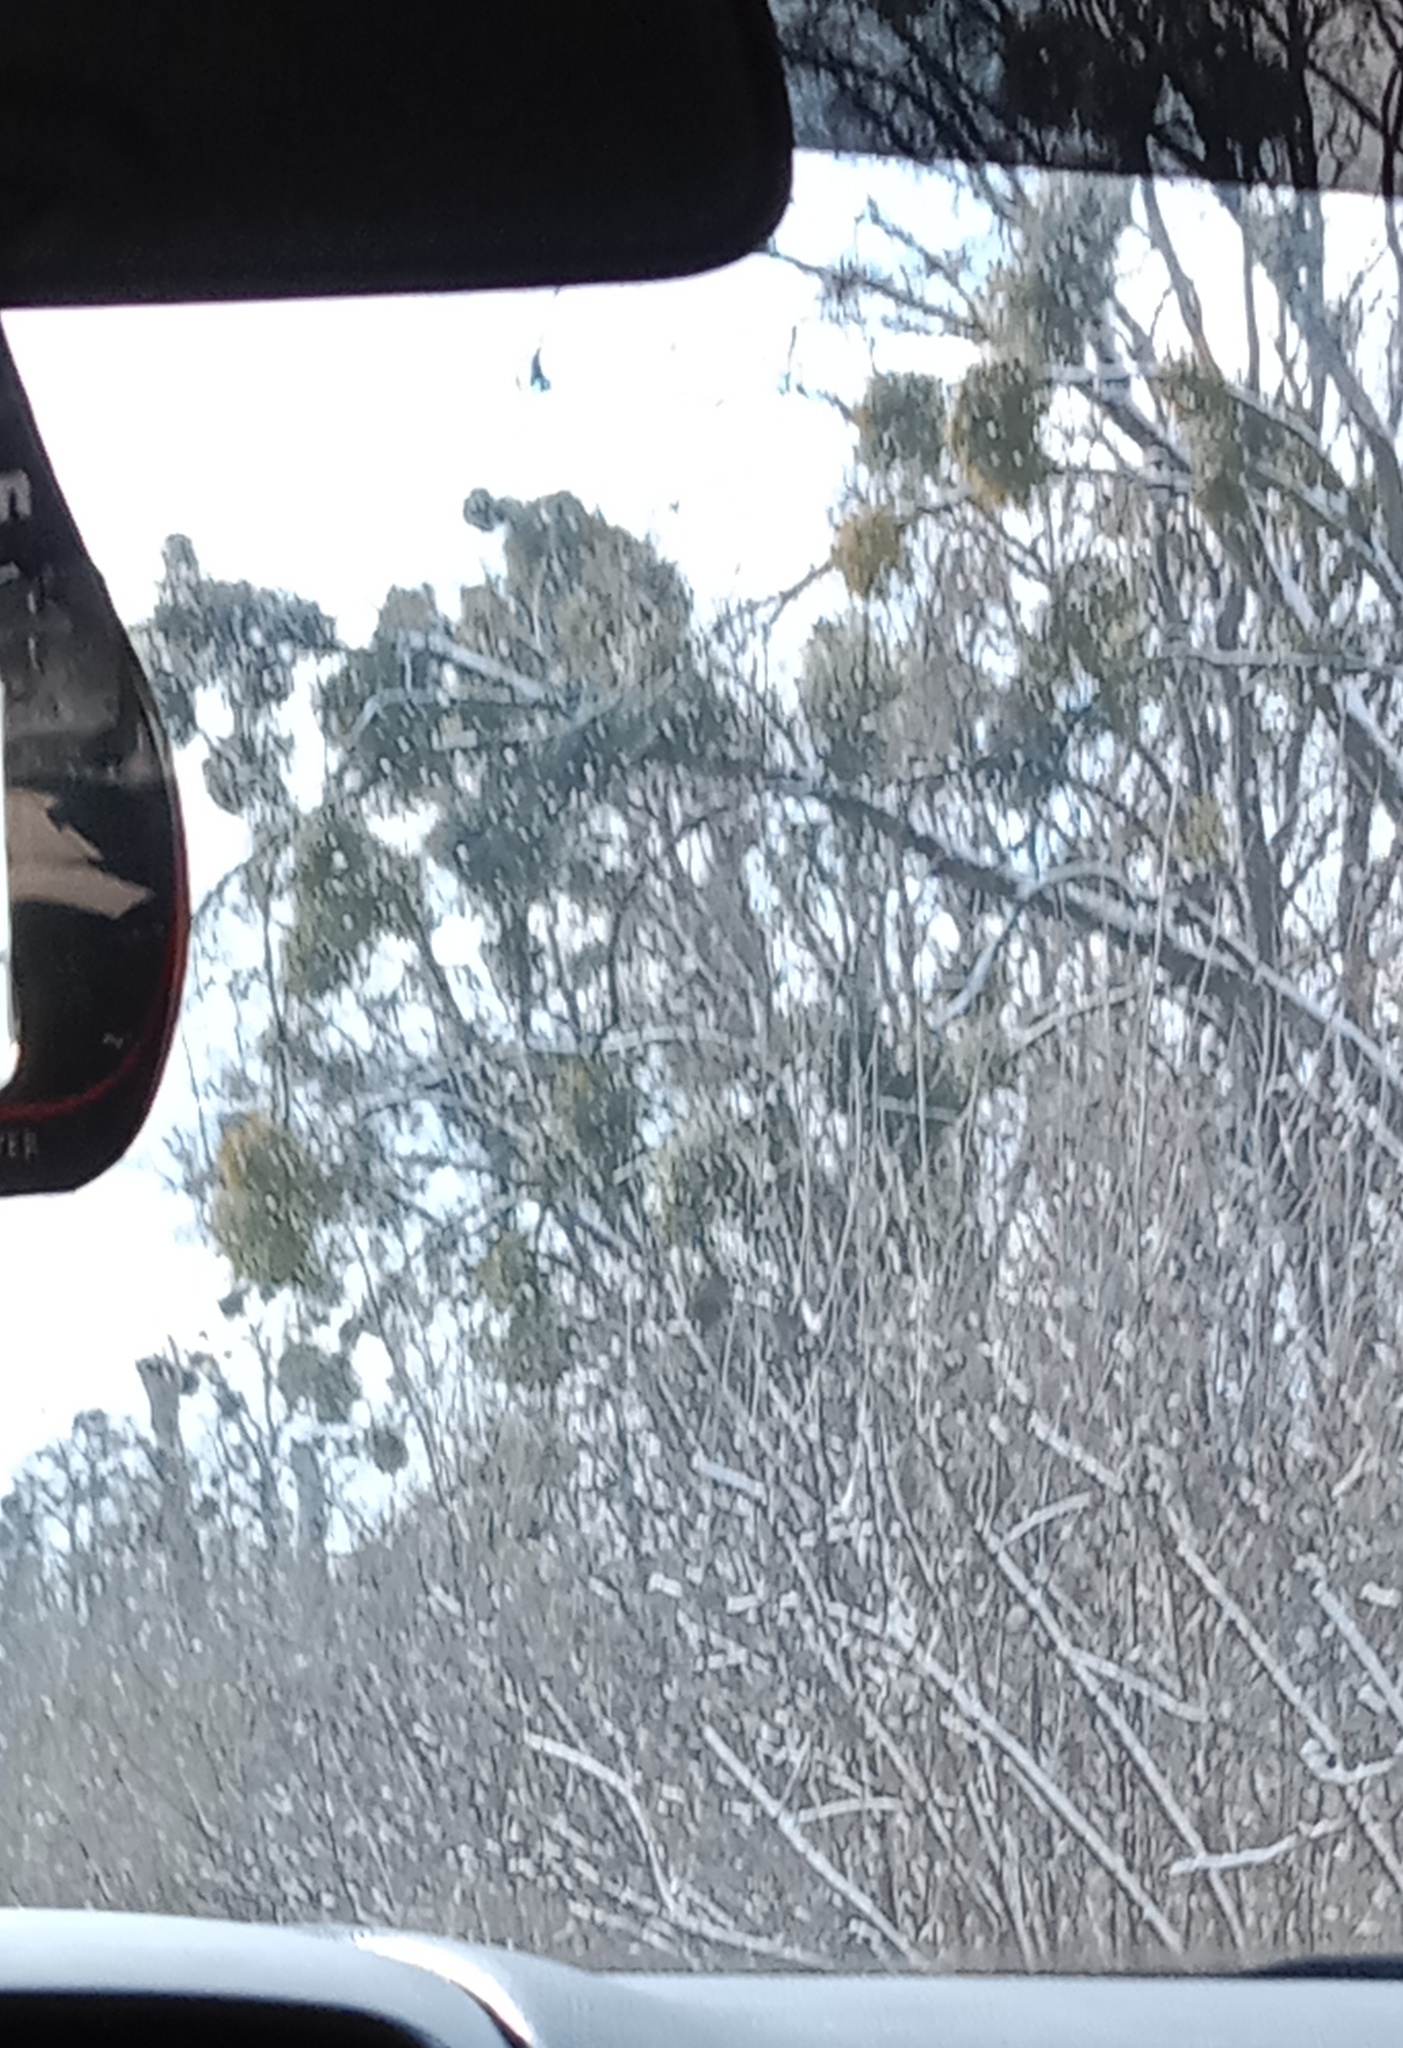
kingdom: Plantae
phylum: Tracheophyta
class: Magnoliopsida
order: Santalales
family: Viscaceae
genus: Viscum
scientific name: Viscum album
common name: Mistletoe
